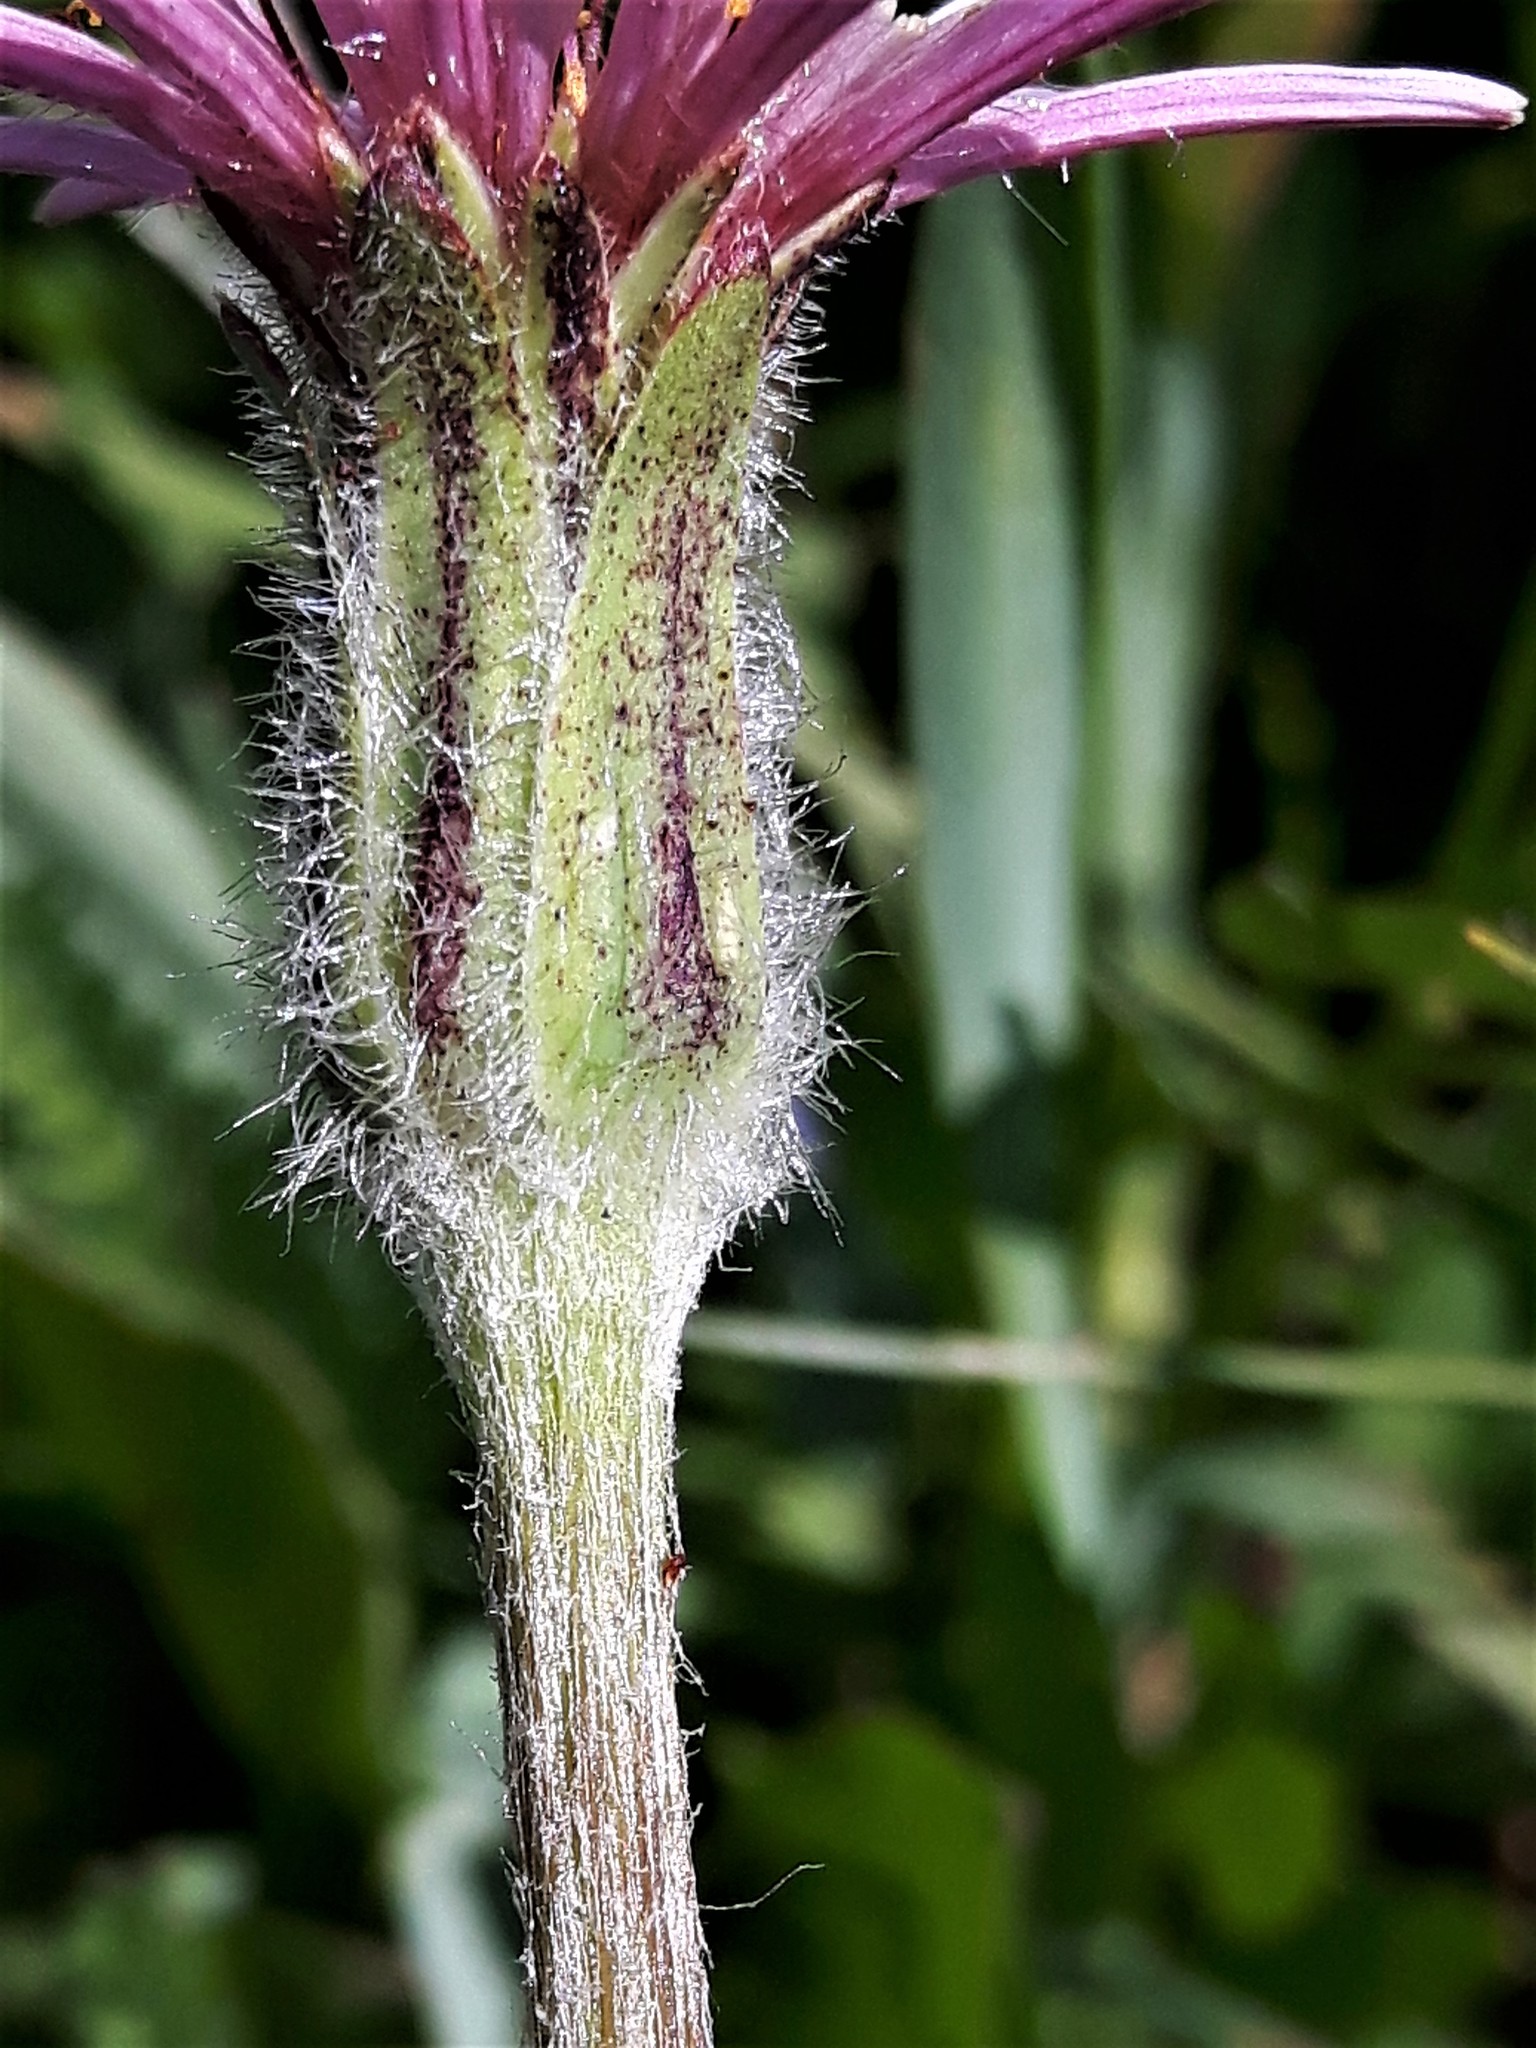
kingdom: Plantae
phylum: Tracheophyta
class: Magnoliopsida
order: Asterales
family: Asteraceae
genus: Agoseris
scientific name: Agoseris aurantiaca
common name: Mountain agoseris
